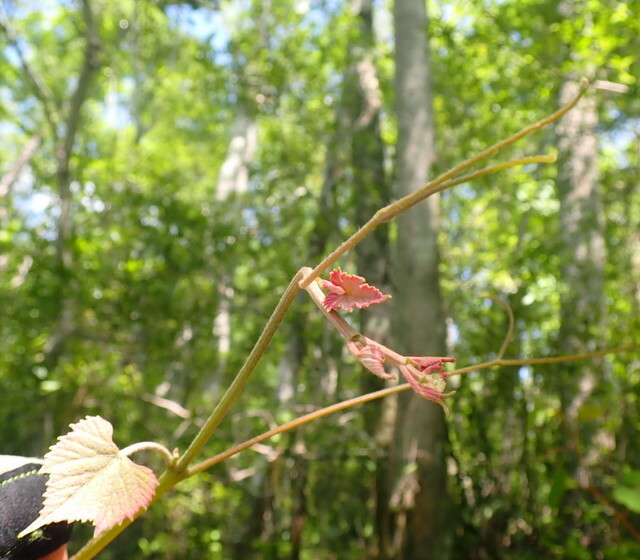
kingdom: Plantae
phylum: Tracheophyta
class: Magnoliopsida
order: Vitales
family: Vitaceae
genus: Vitis
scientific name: Vitis aestivalis
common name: Pigeon grape
